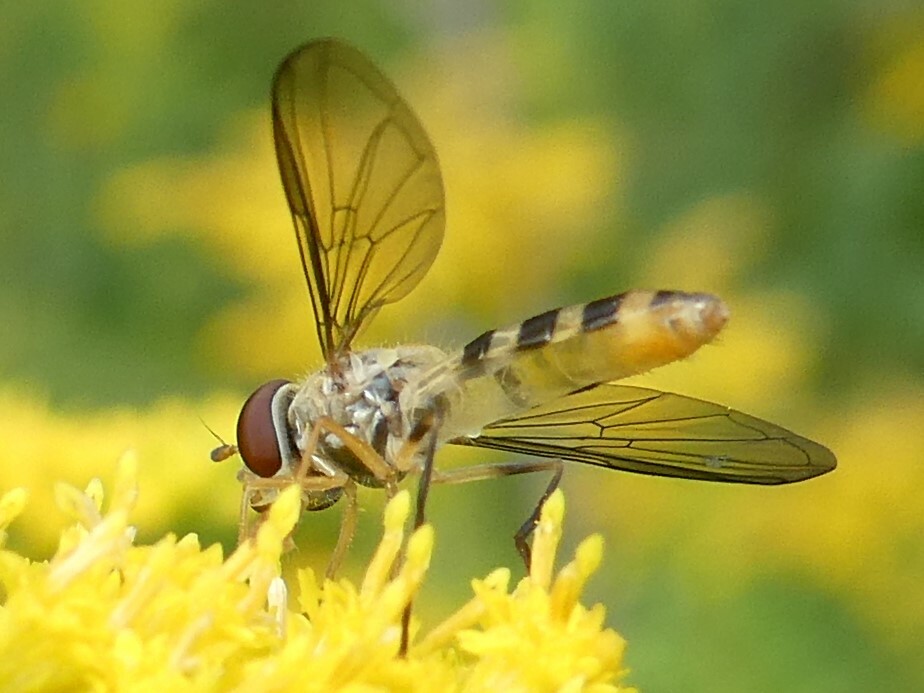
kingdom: Animalia
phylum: Arthropoda
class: Insecta
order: Diptera
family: Syrphidae
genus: Meliscaeva
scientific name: Meliscaeva cinctella
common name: American thintail fly
